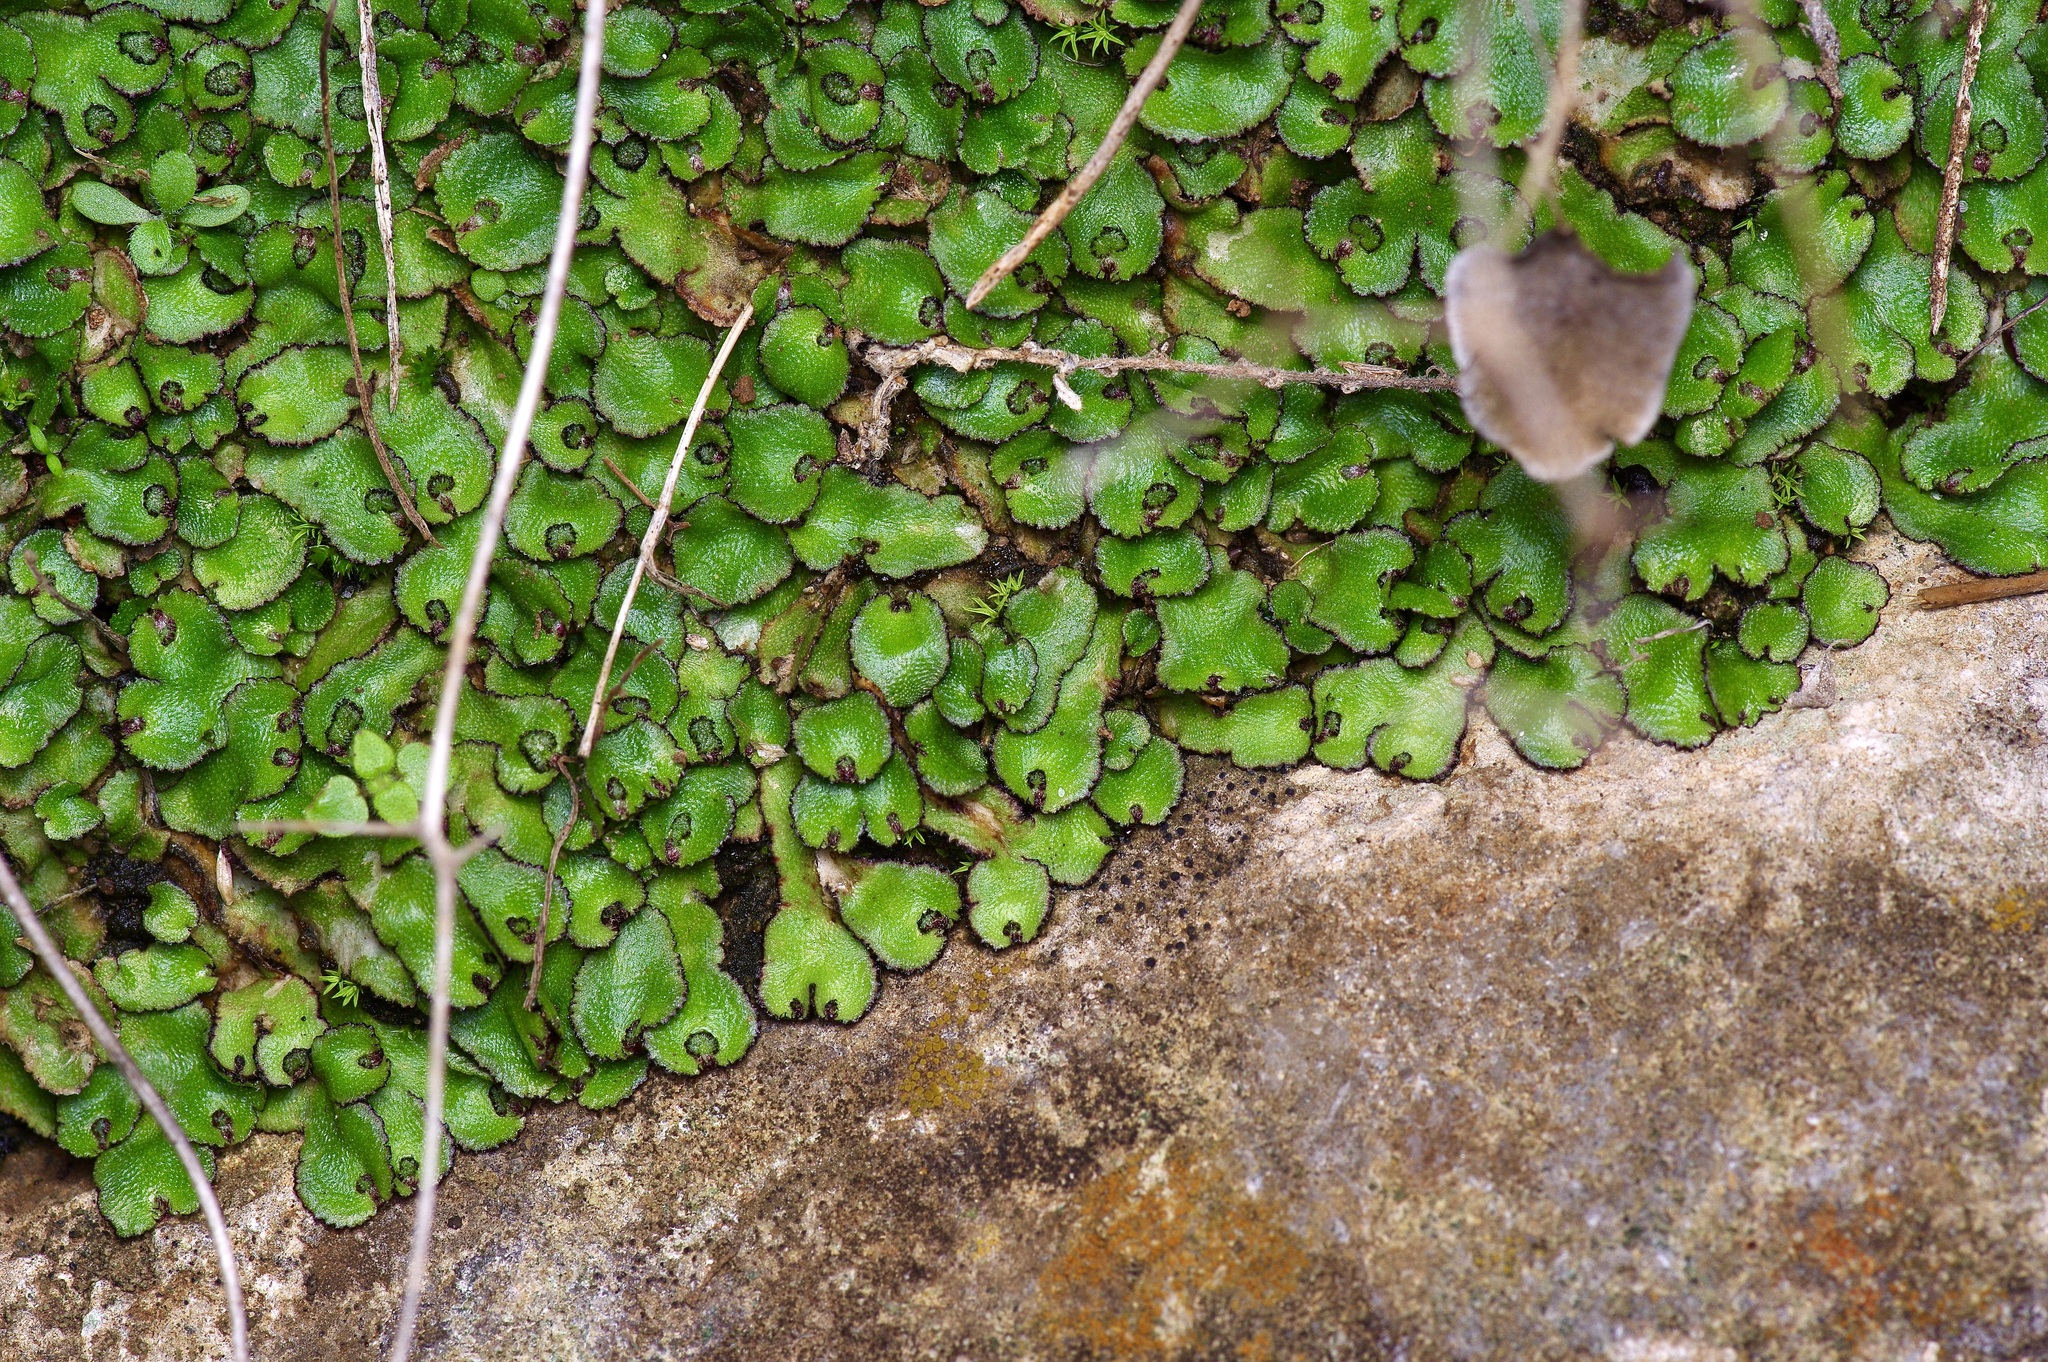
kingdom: Plantae
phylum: Marchantiophyta
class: Marchantiopsida
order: Marchantiales
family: Aytoniaceae
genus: Reboulia
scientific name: Reboulia hemisphaerica
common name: Purple-margined liverwort
